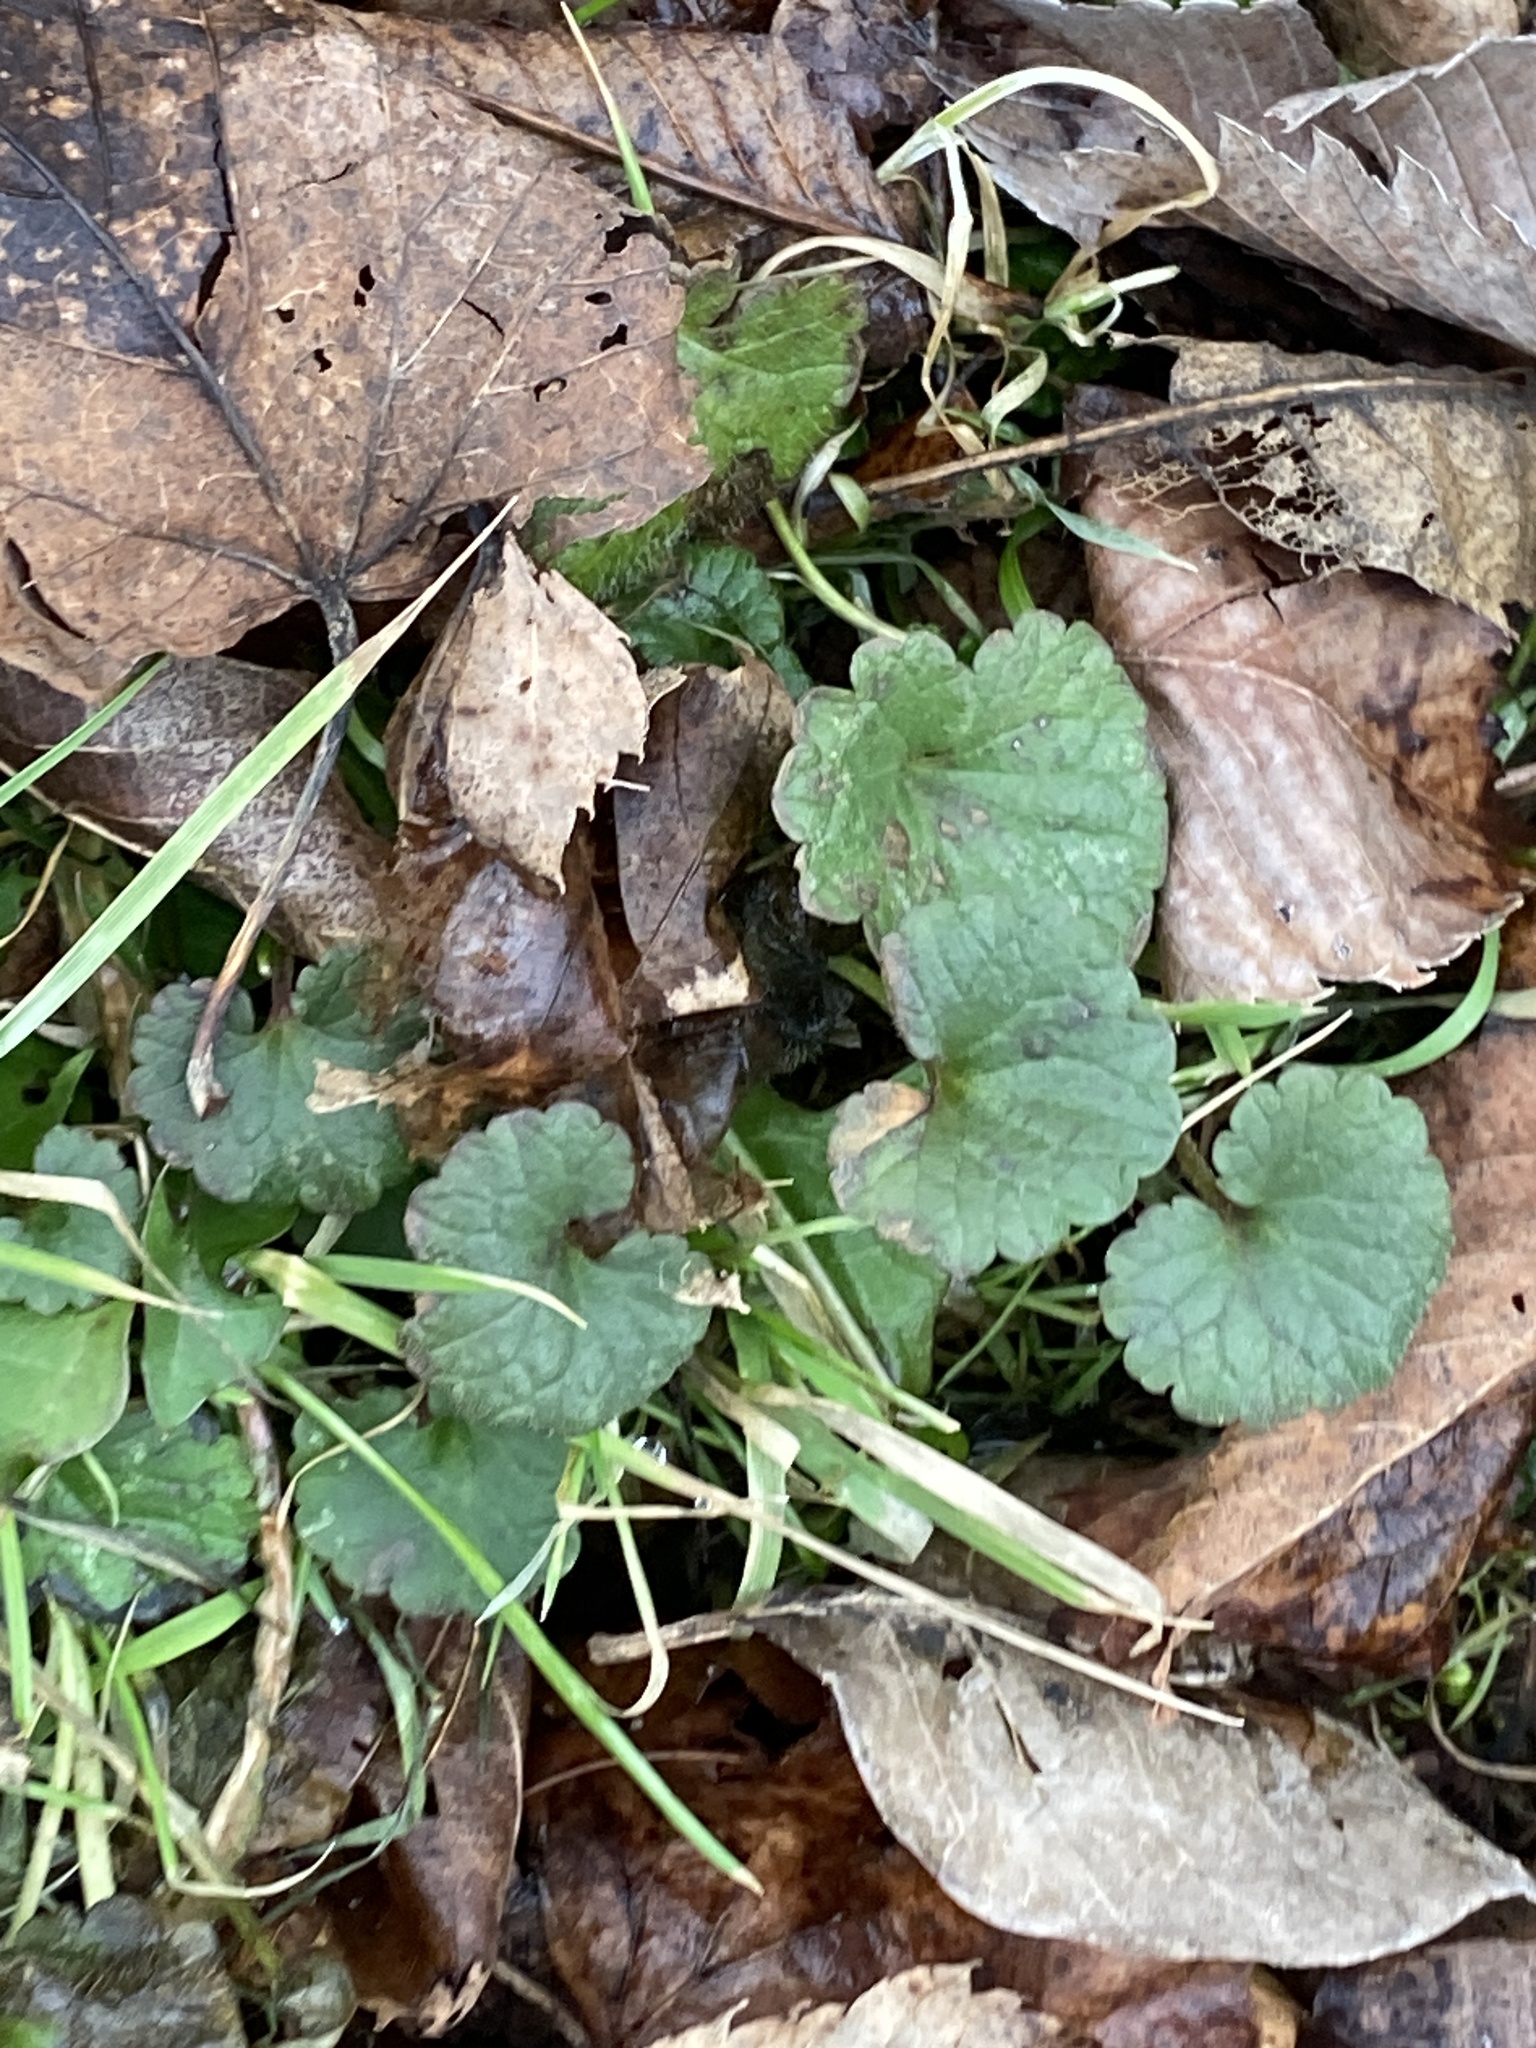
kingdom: Plantae
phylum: Tracheophyta
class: Magnoliopsida
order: Lamiales
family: Lamiaceae
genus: Glechoma
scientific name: Glechoma hederacea
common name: Ground ivy
